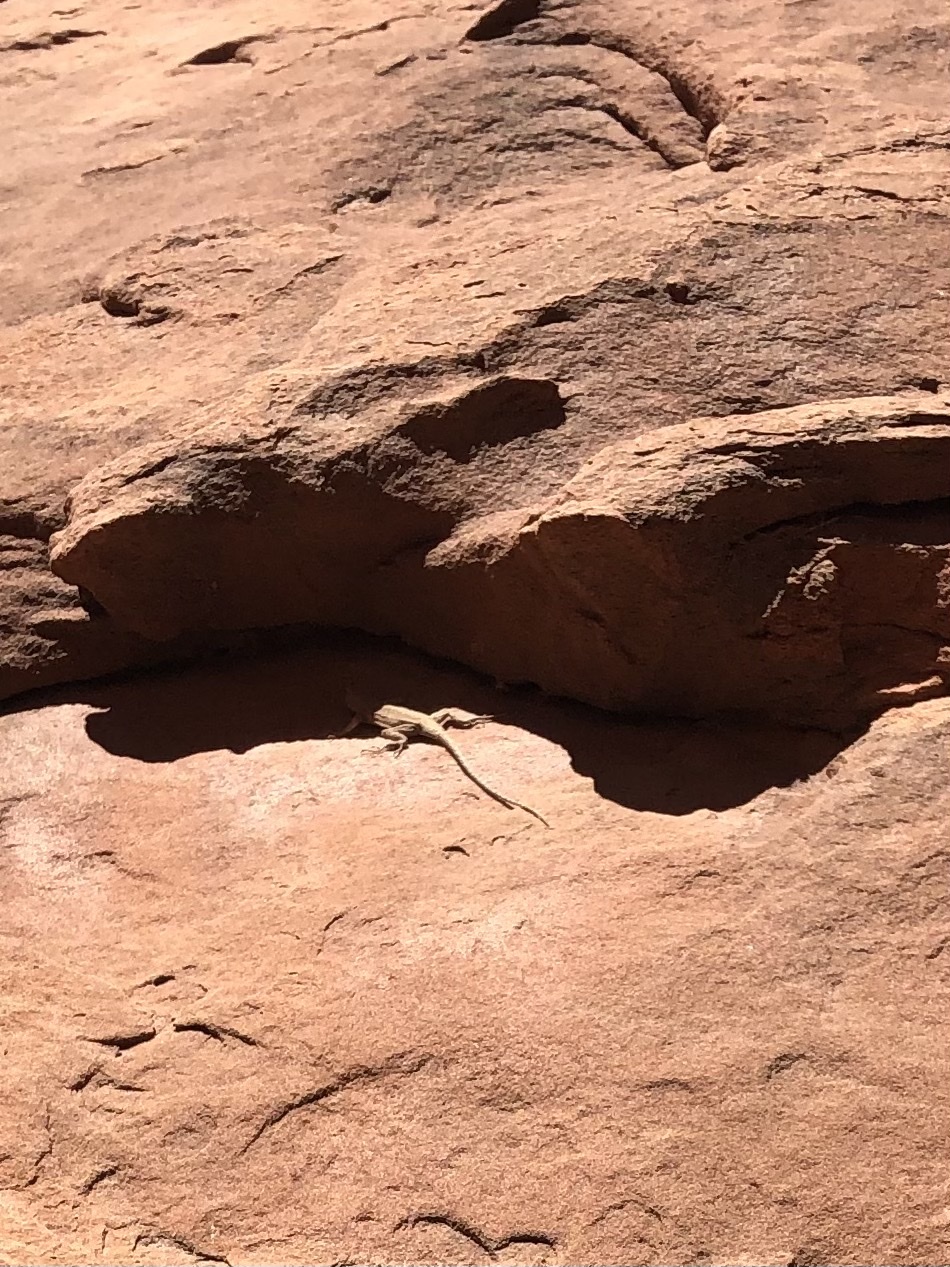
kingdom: Animalia
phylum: Chordata
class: Squamata
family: Phrynosomatidae
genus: Urosaurus
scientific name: Urosaurus ornatus
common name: Ornate tree lizard
